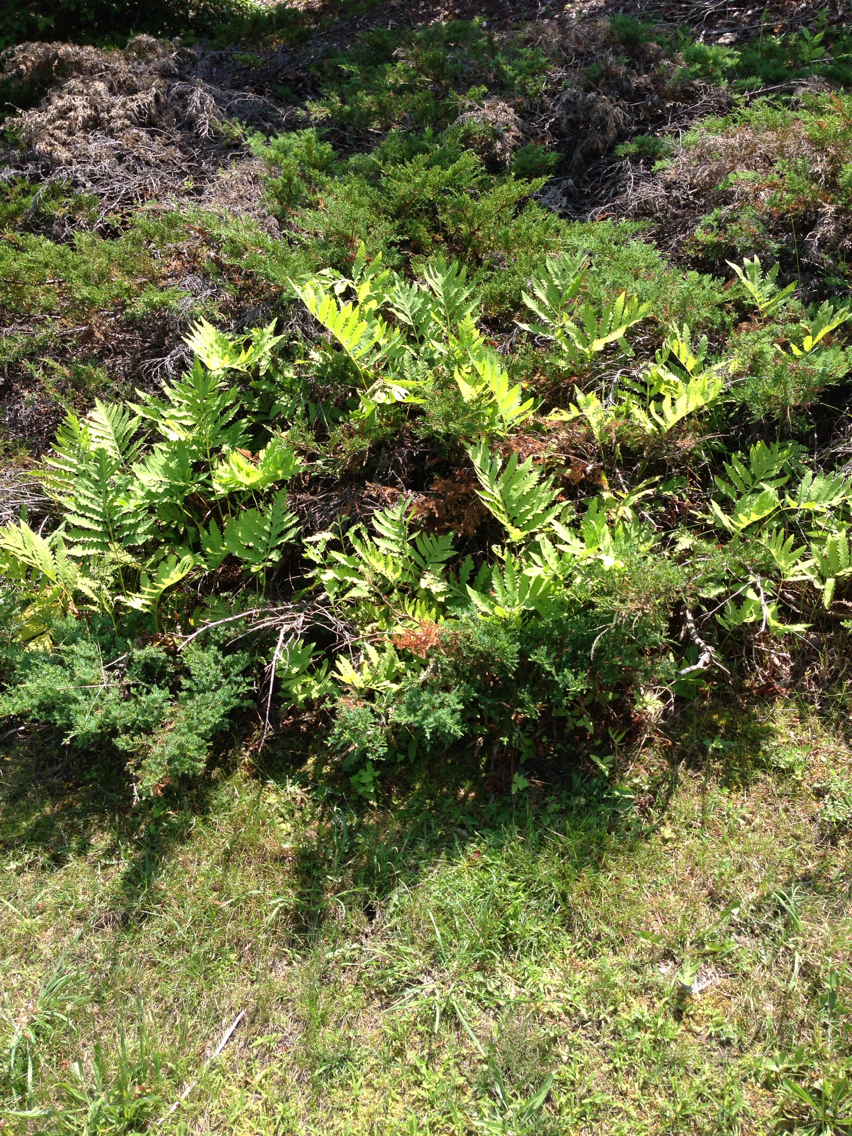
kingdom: Plantae
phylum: Tracheophyta
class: Polypodiopsida
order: Polypodiales
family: Onocleaceae
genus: Onoclea
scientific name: Onoclea sensibilis
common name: Sensitive fern
